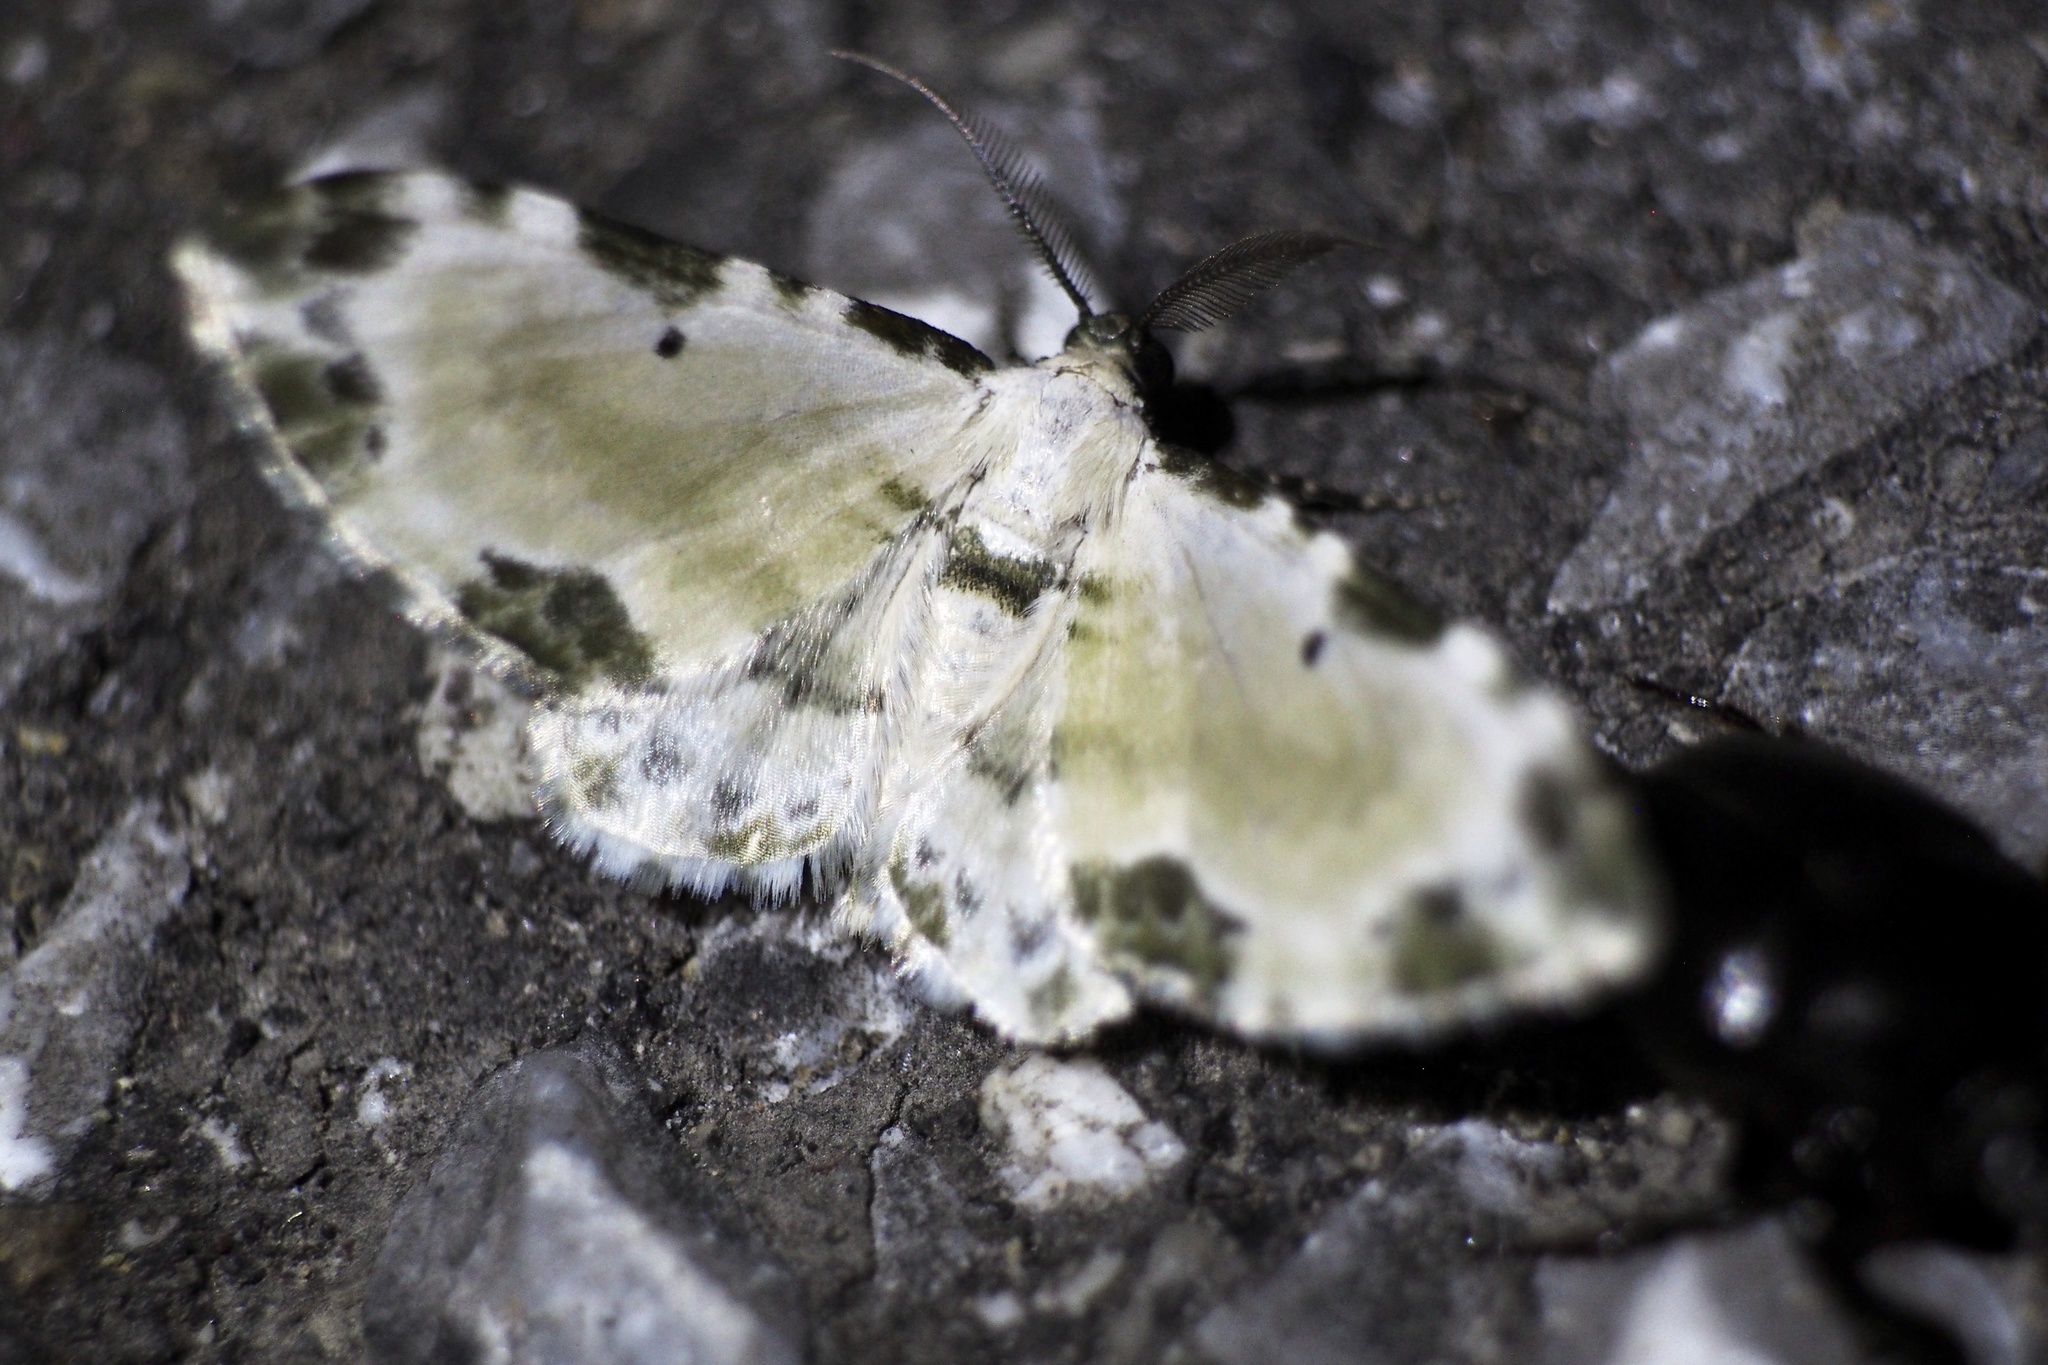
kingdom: Animalia
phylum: Arthropoda
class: Insecta
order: Lepidoptera
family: Geometridae
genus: Tyloptera
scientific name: Tyloptera bella
